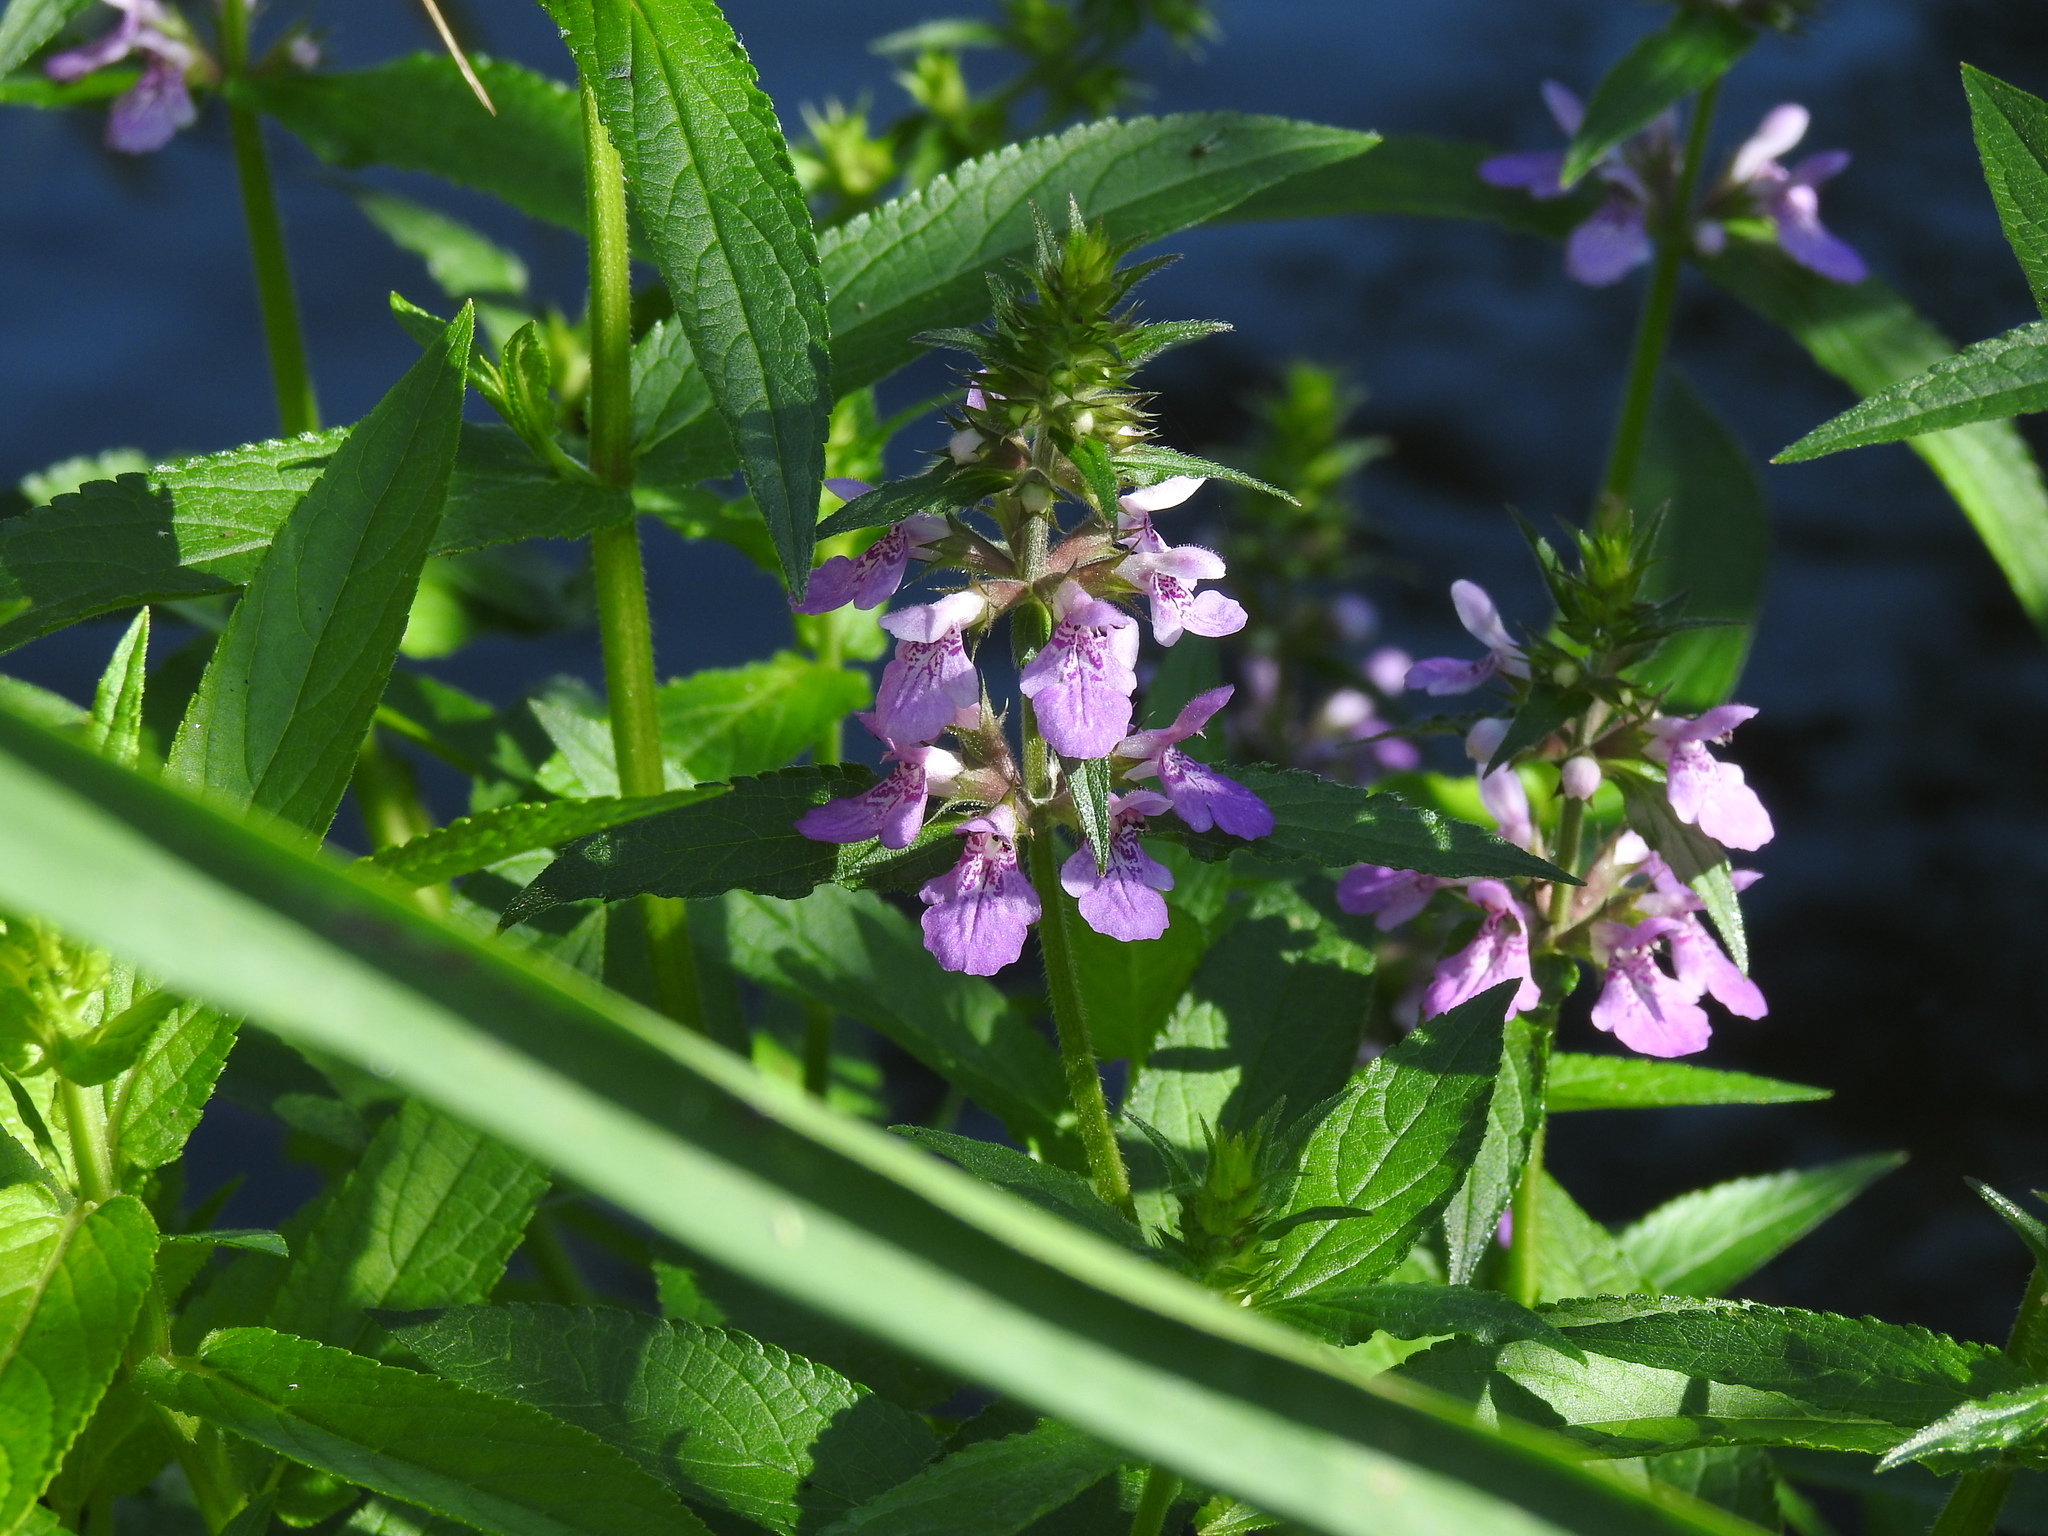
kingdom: Plantae
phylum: Tracheophyta
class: Magnoliopsida
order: Lamiales
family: Lamiaceae
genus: Stachys
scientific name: Stachys palustris
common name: Marsh woundwort
